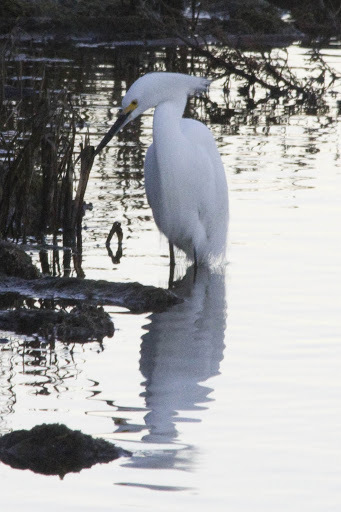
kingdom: Animalia
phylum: Chordata
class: Aves
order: Pelecaniformes
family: Ardeidae
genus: Egretta
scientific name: Egretta thula
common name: Snowy egret
